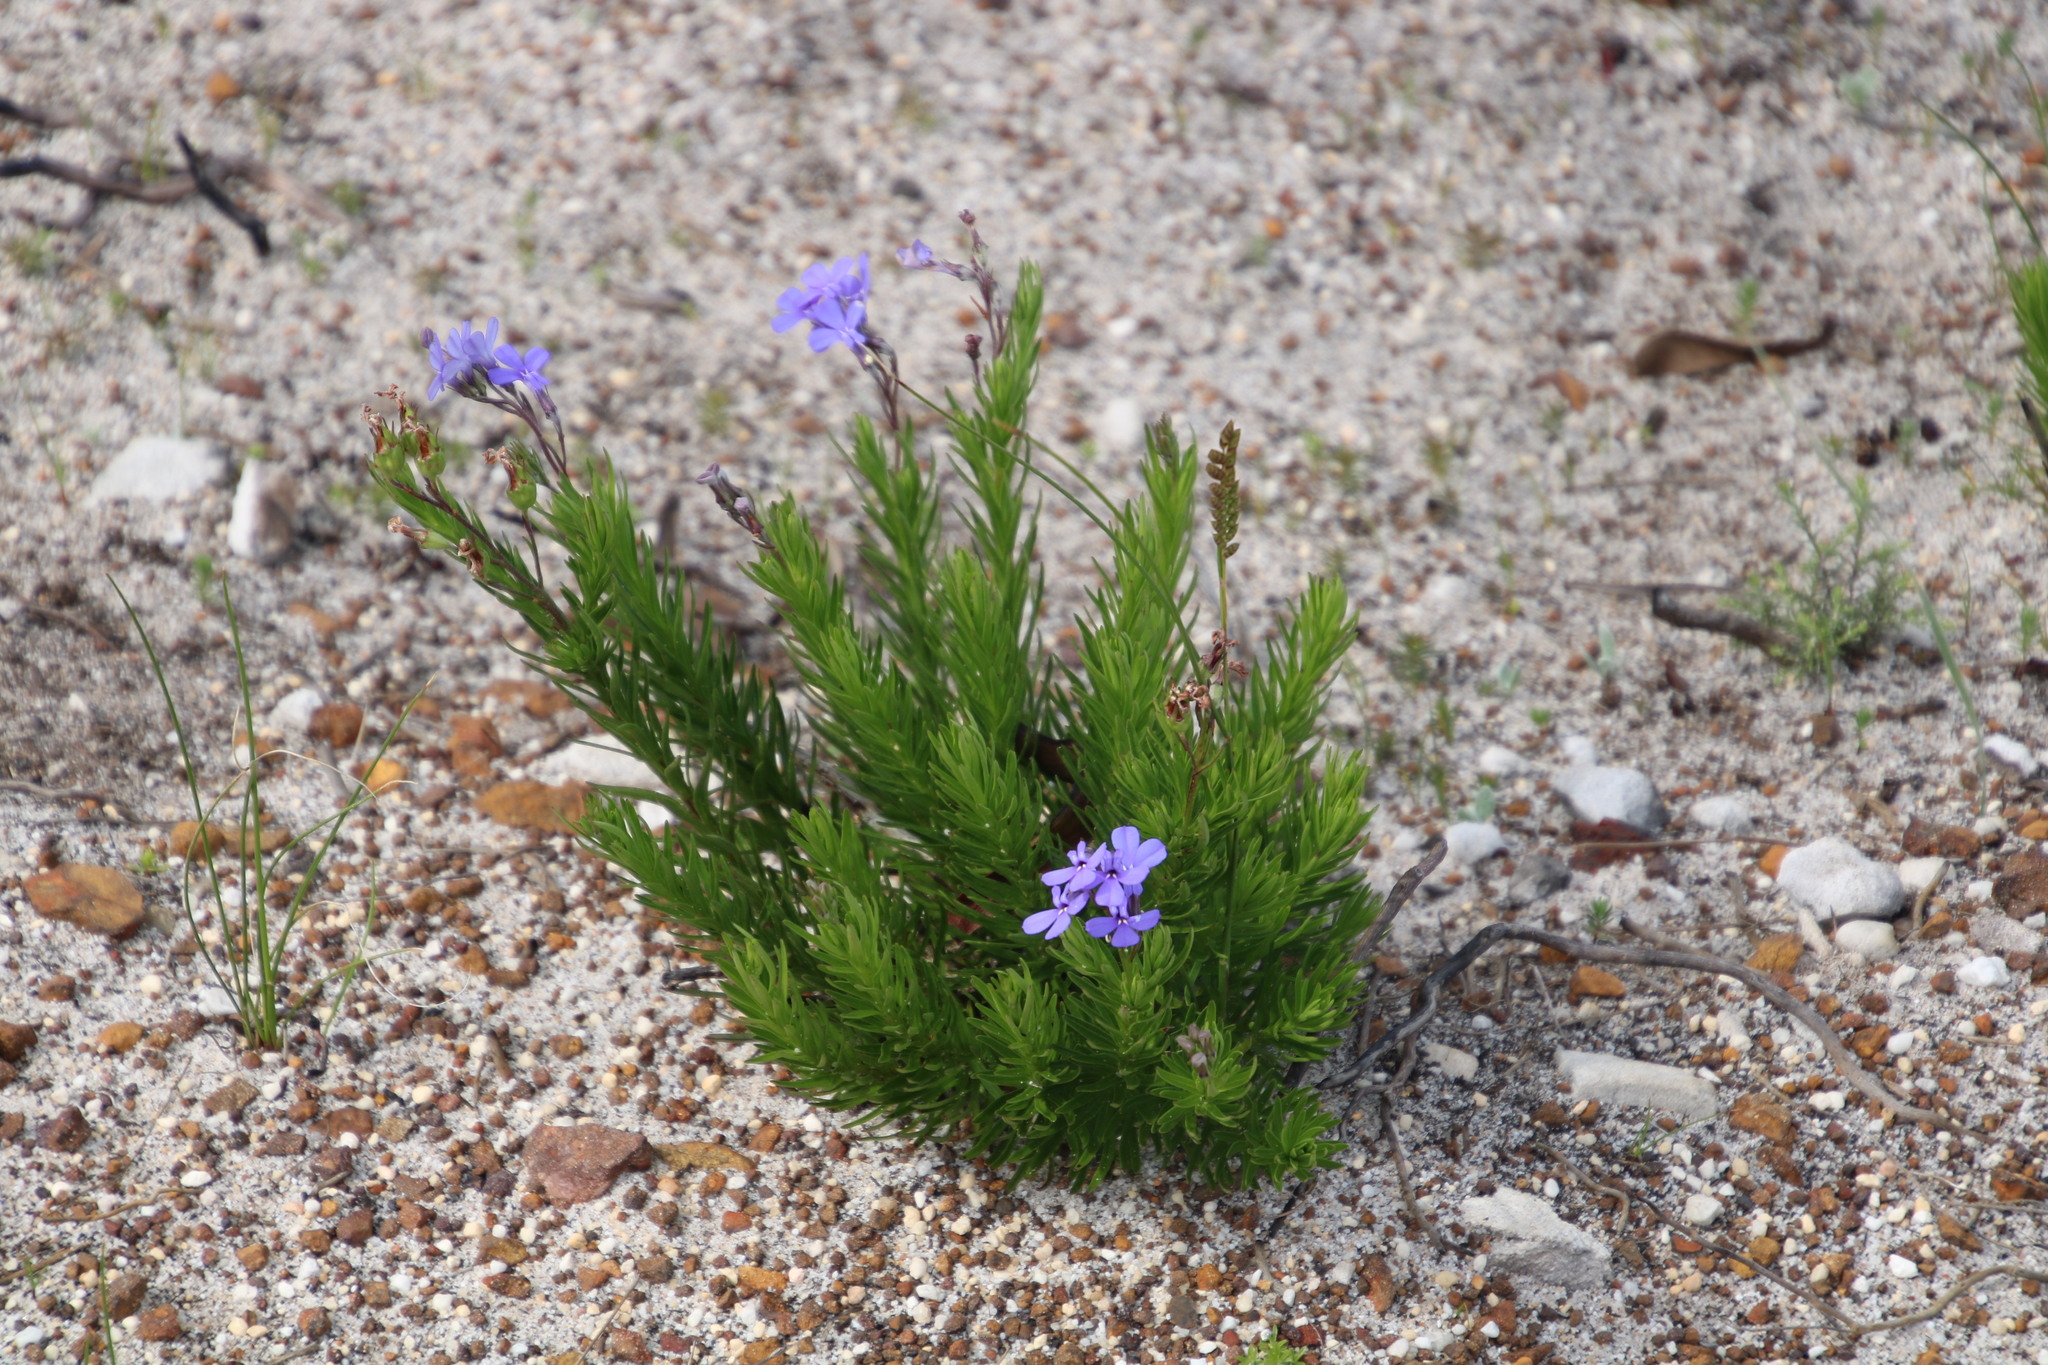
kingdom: Plantae
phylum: Tracheophyta
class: Magnoliopsida
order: Asterales
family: Campanulaceae
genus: Lobelia
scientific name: Lobelia pinifolia
